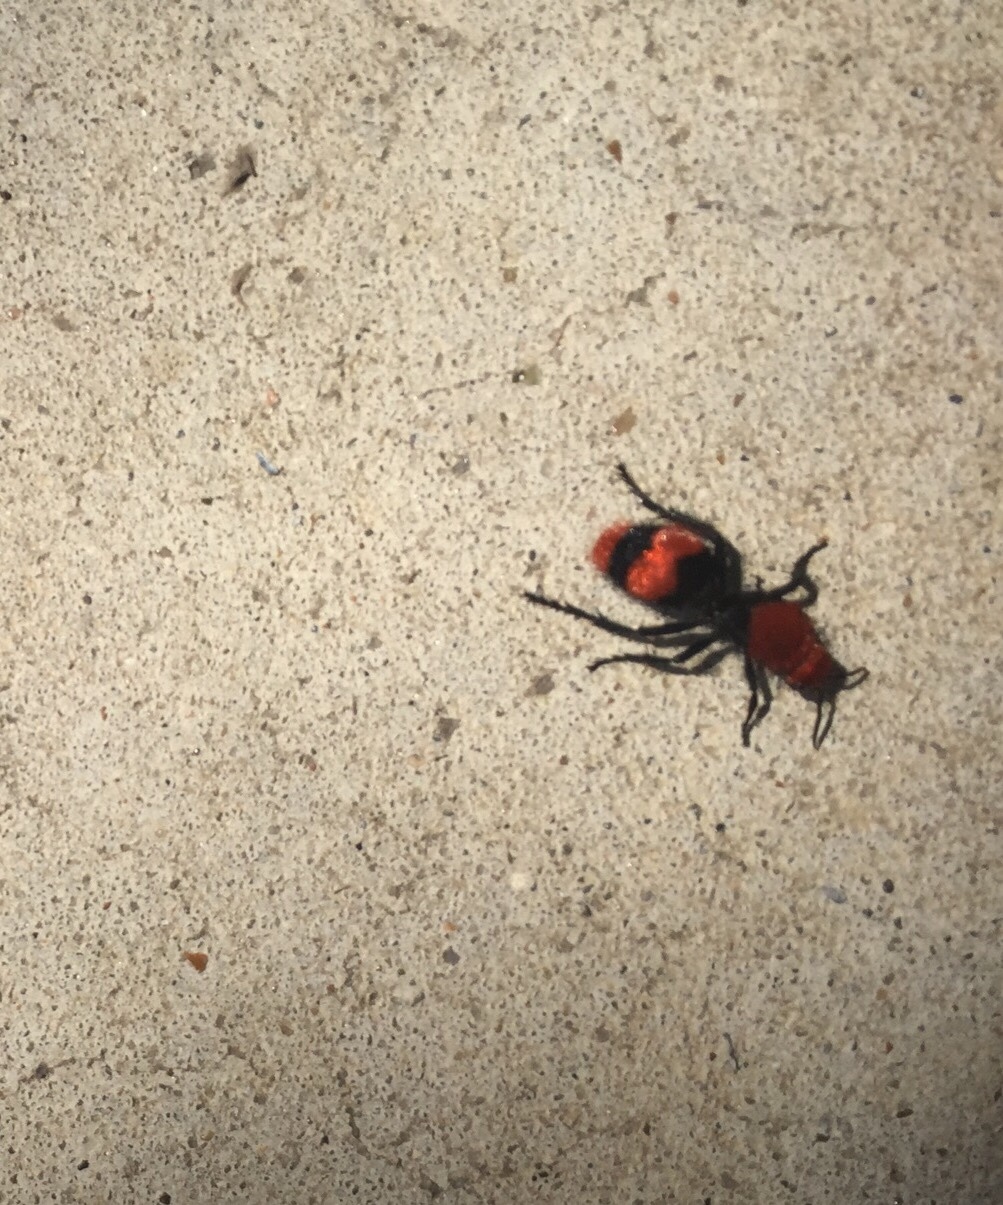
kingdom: Animalia
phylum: Arthropoda
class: Insecta
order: Hymenoptera
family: Mutillidae
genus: Dasymutilla
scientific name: Dasymutilla occidentalis
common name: Common eastern velvet ant
